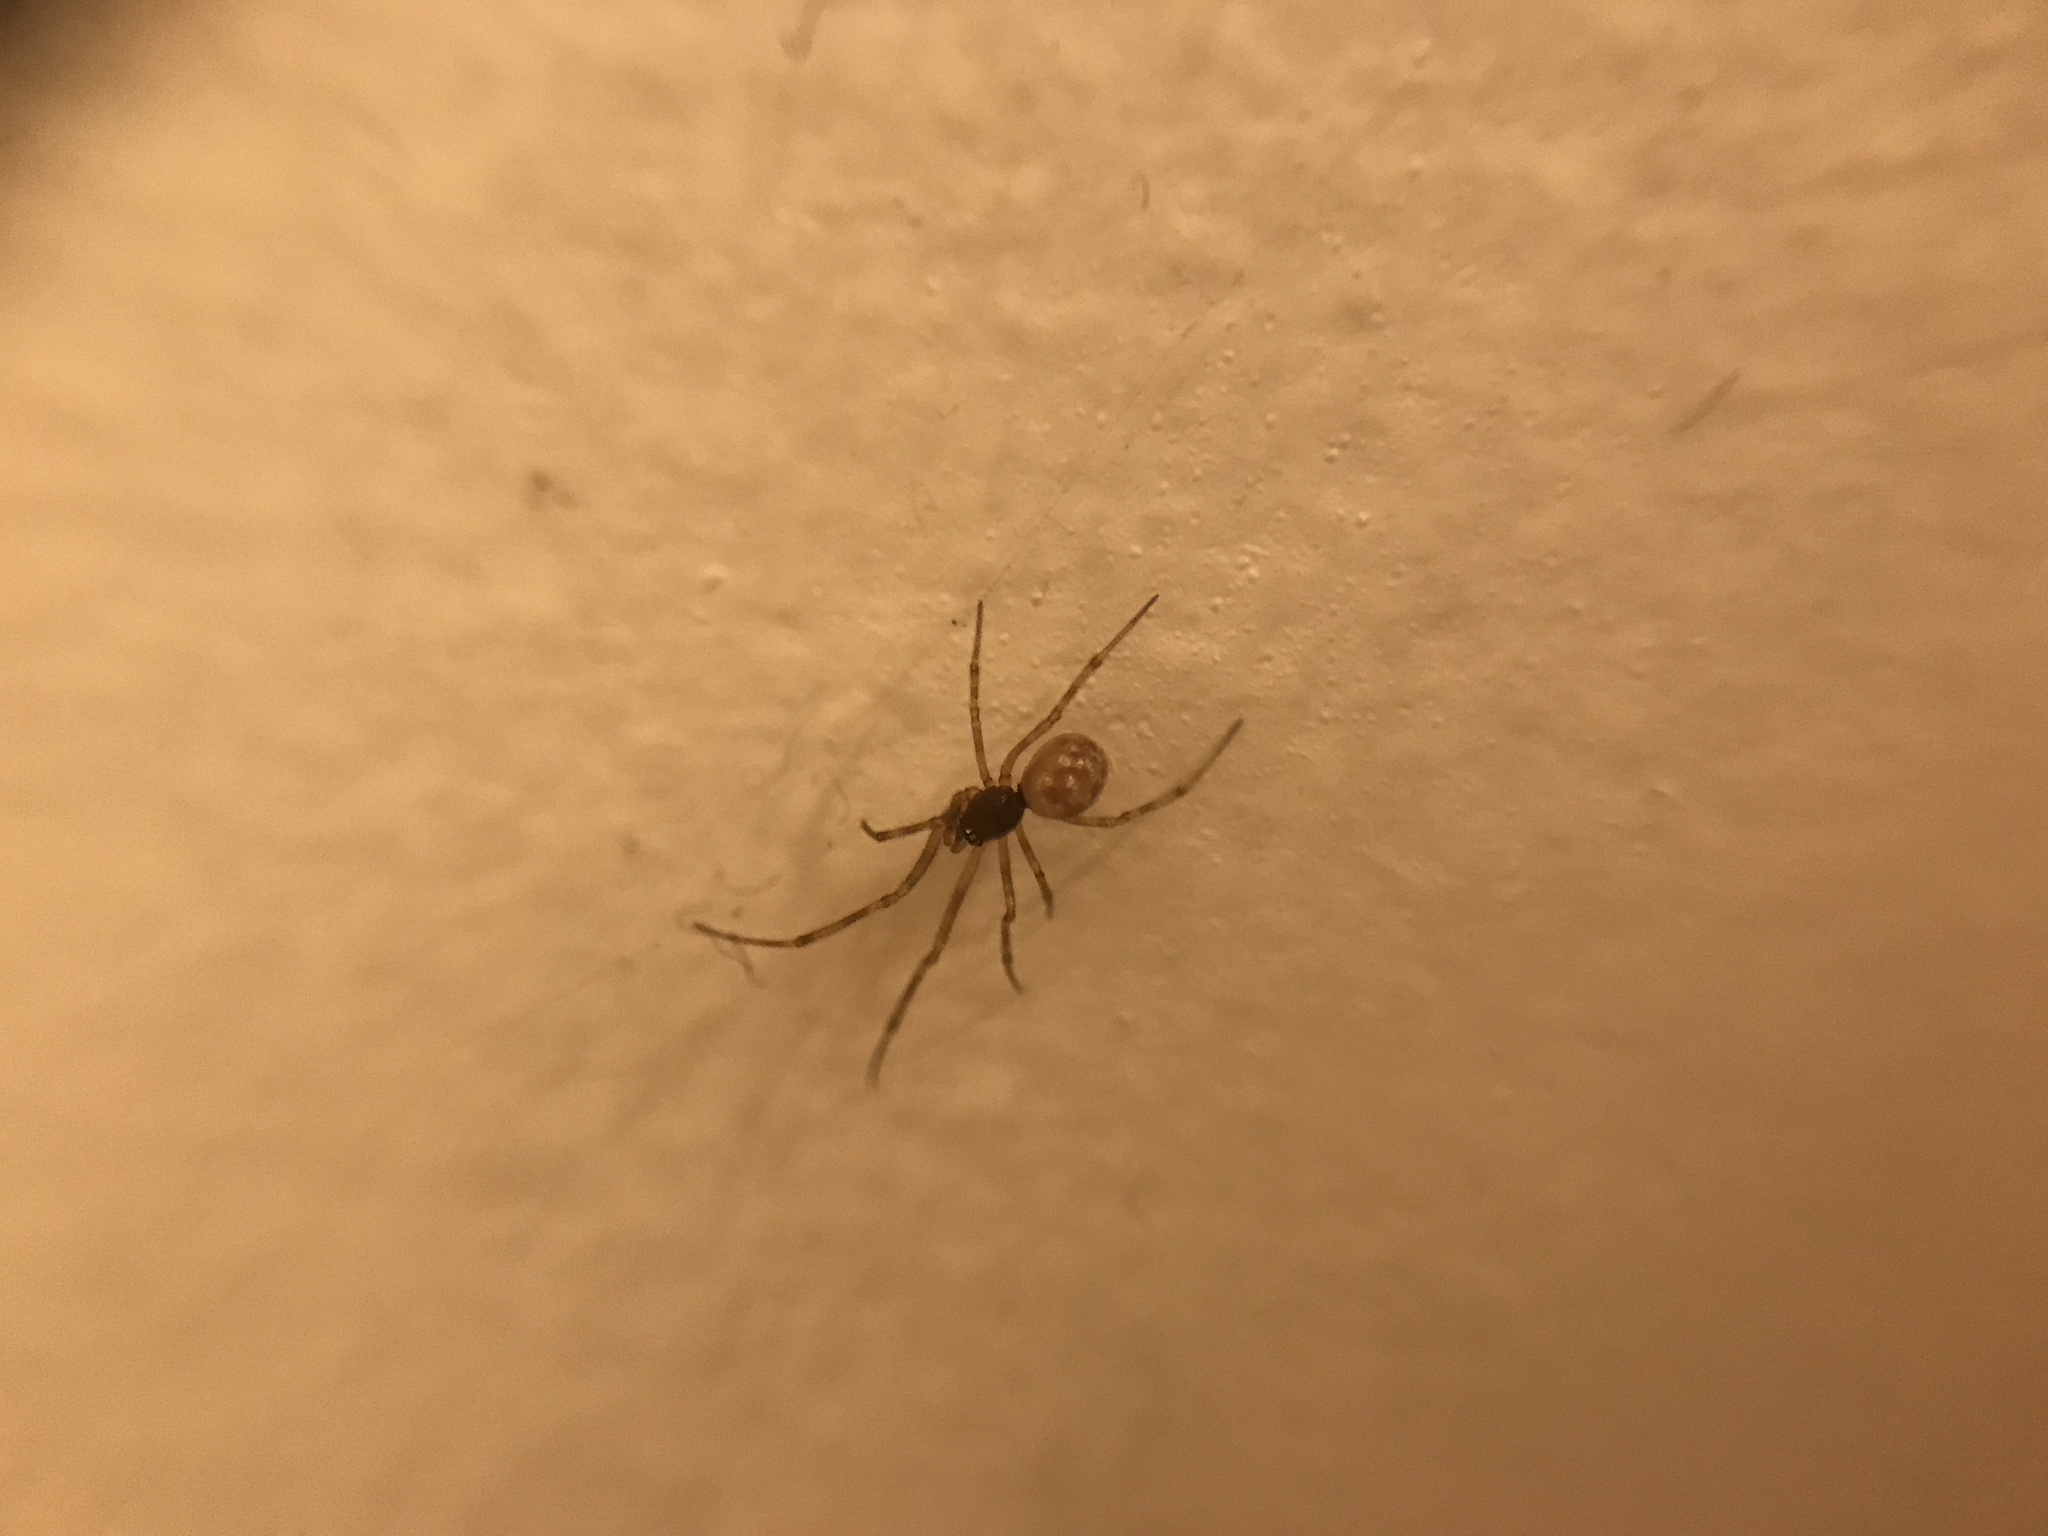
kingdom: Animalia
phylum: Arthropoda
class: Arachnida
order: Araneae
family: Theridiidae
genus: Steatoda
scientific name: Steatoda triangulosa
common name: Triangulate bud spider
